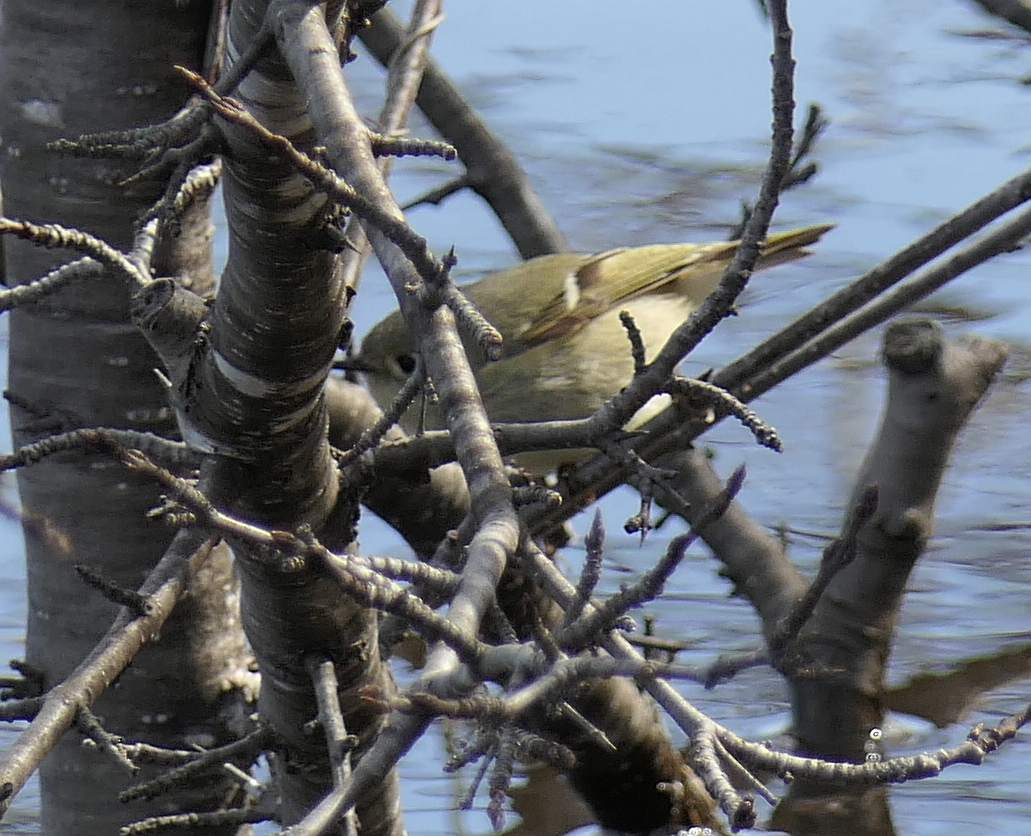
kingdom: Animalia
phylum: Chordata
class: Aves
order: Passeriformes
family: Regulidae
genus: Regulus
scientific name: Regulus calendula
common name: Ruby-crowned kinglet
